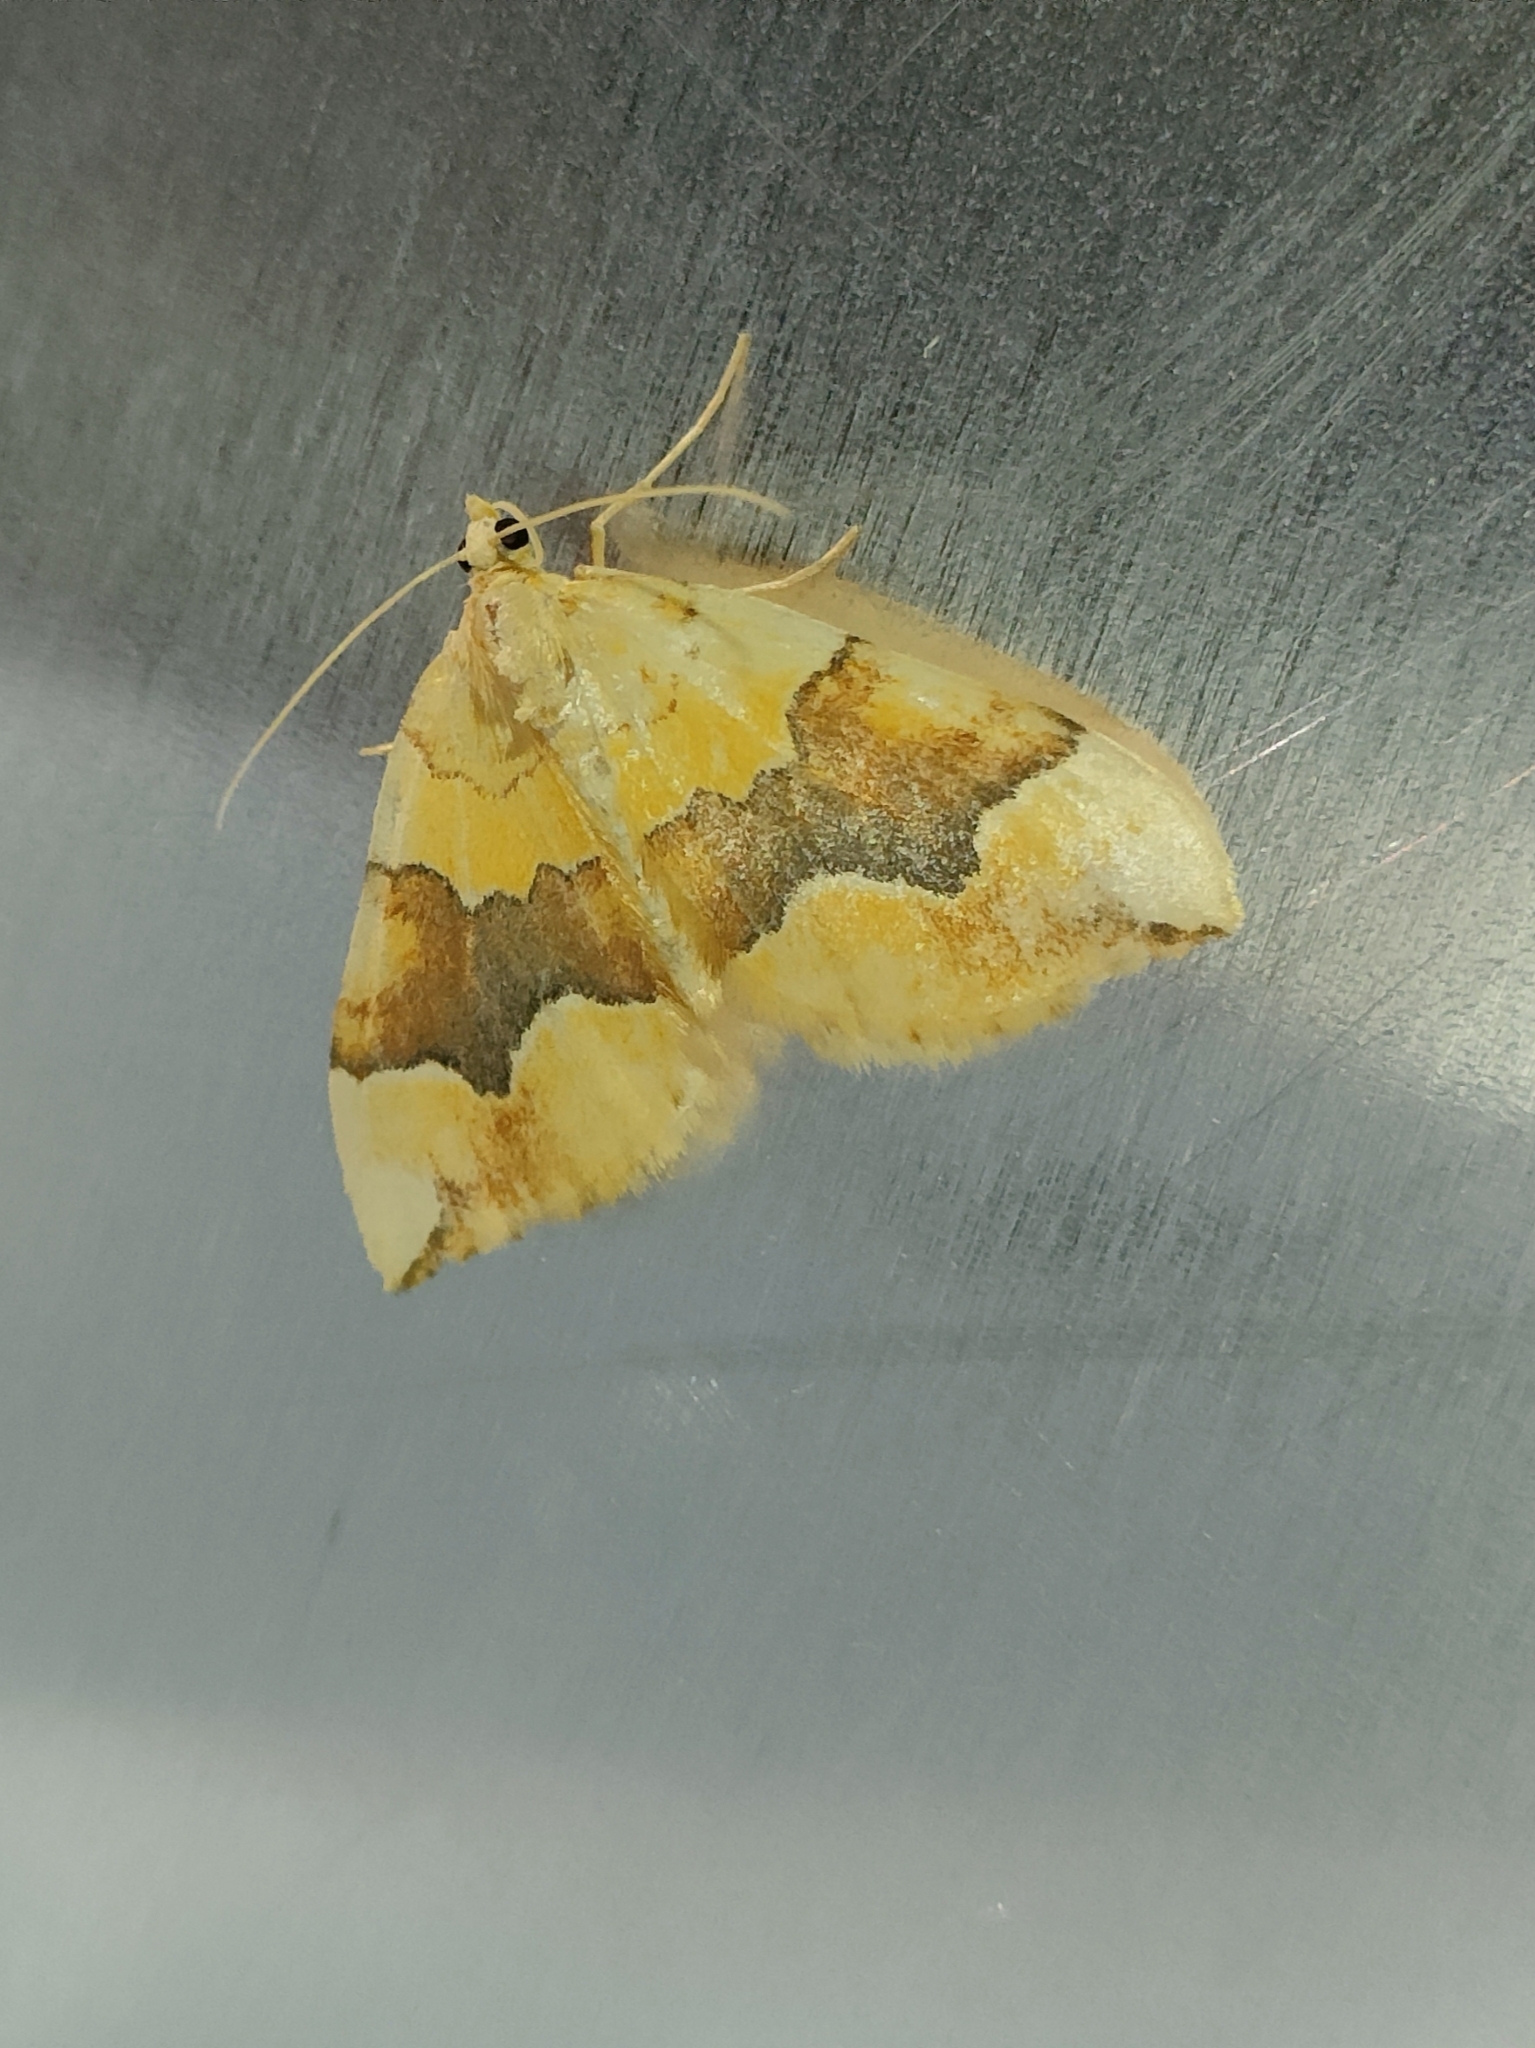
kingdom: Animalia
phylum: Arthropoda
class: Insecta
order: Lepidoptera
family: Geometridae
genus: Cidaria
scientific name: Cidaria fulvata
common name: Barred yellow
